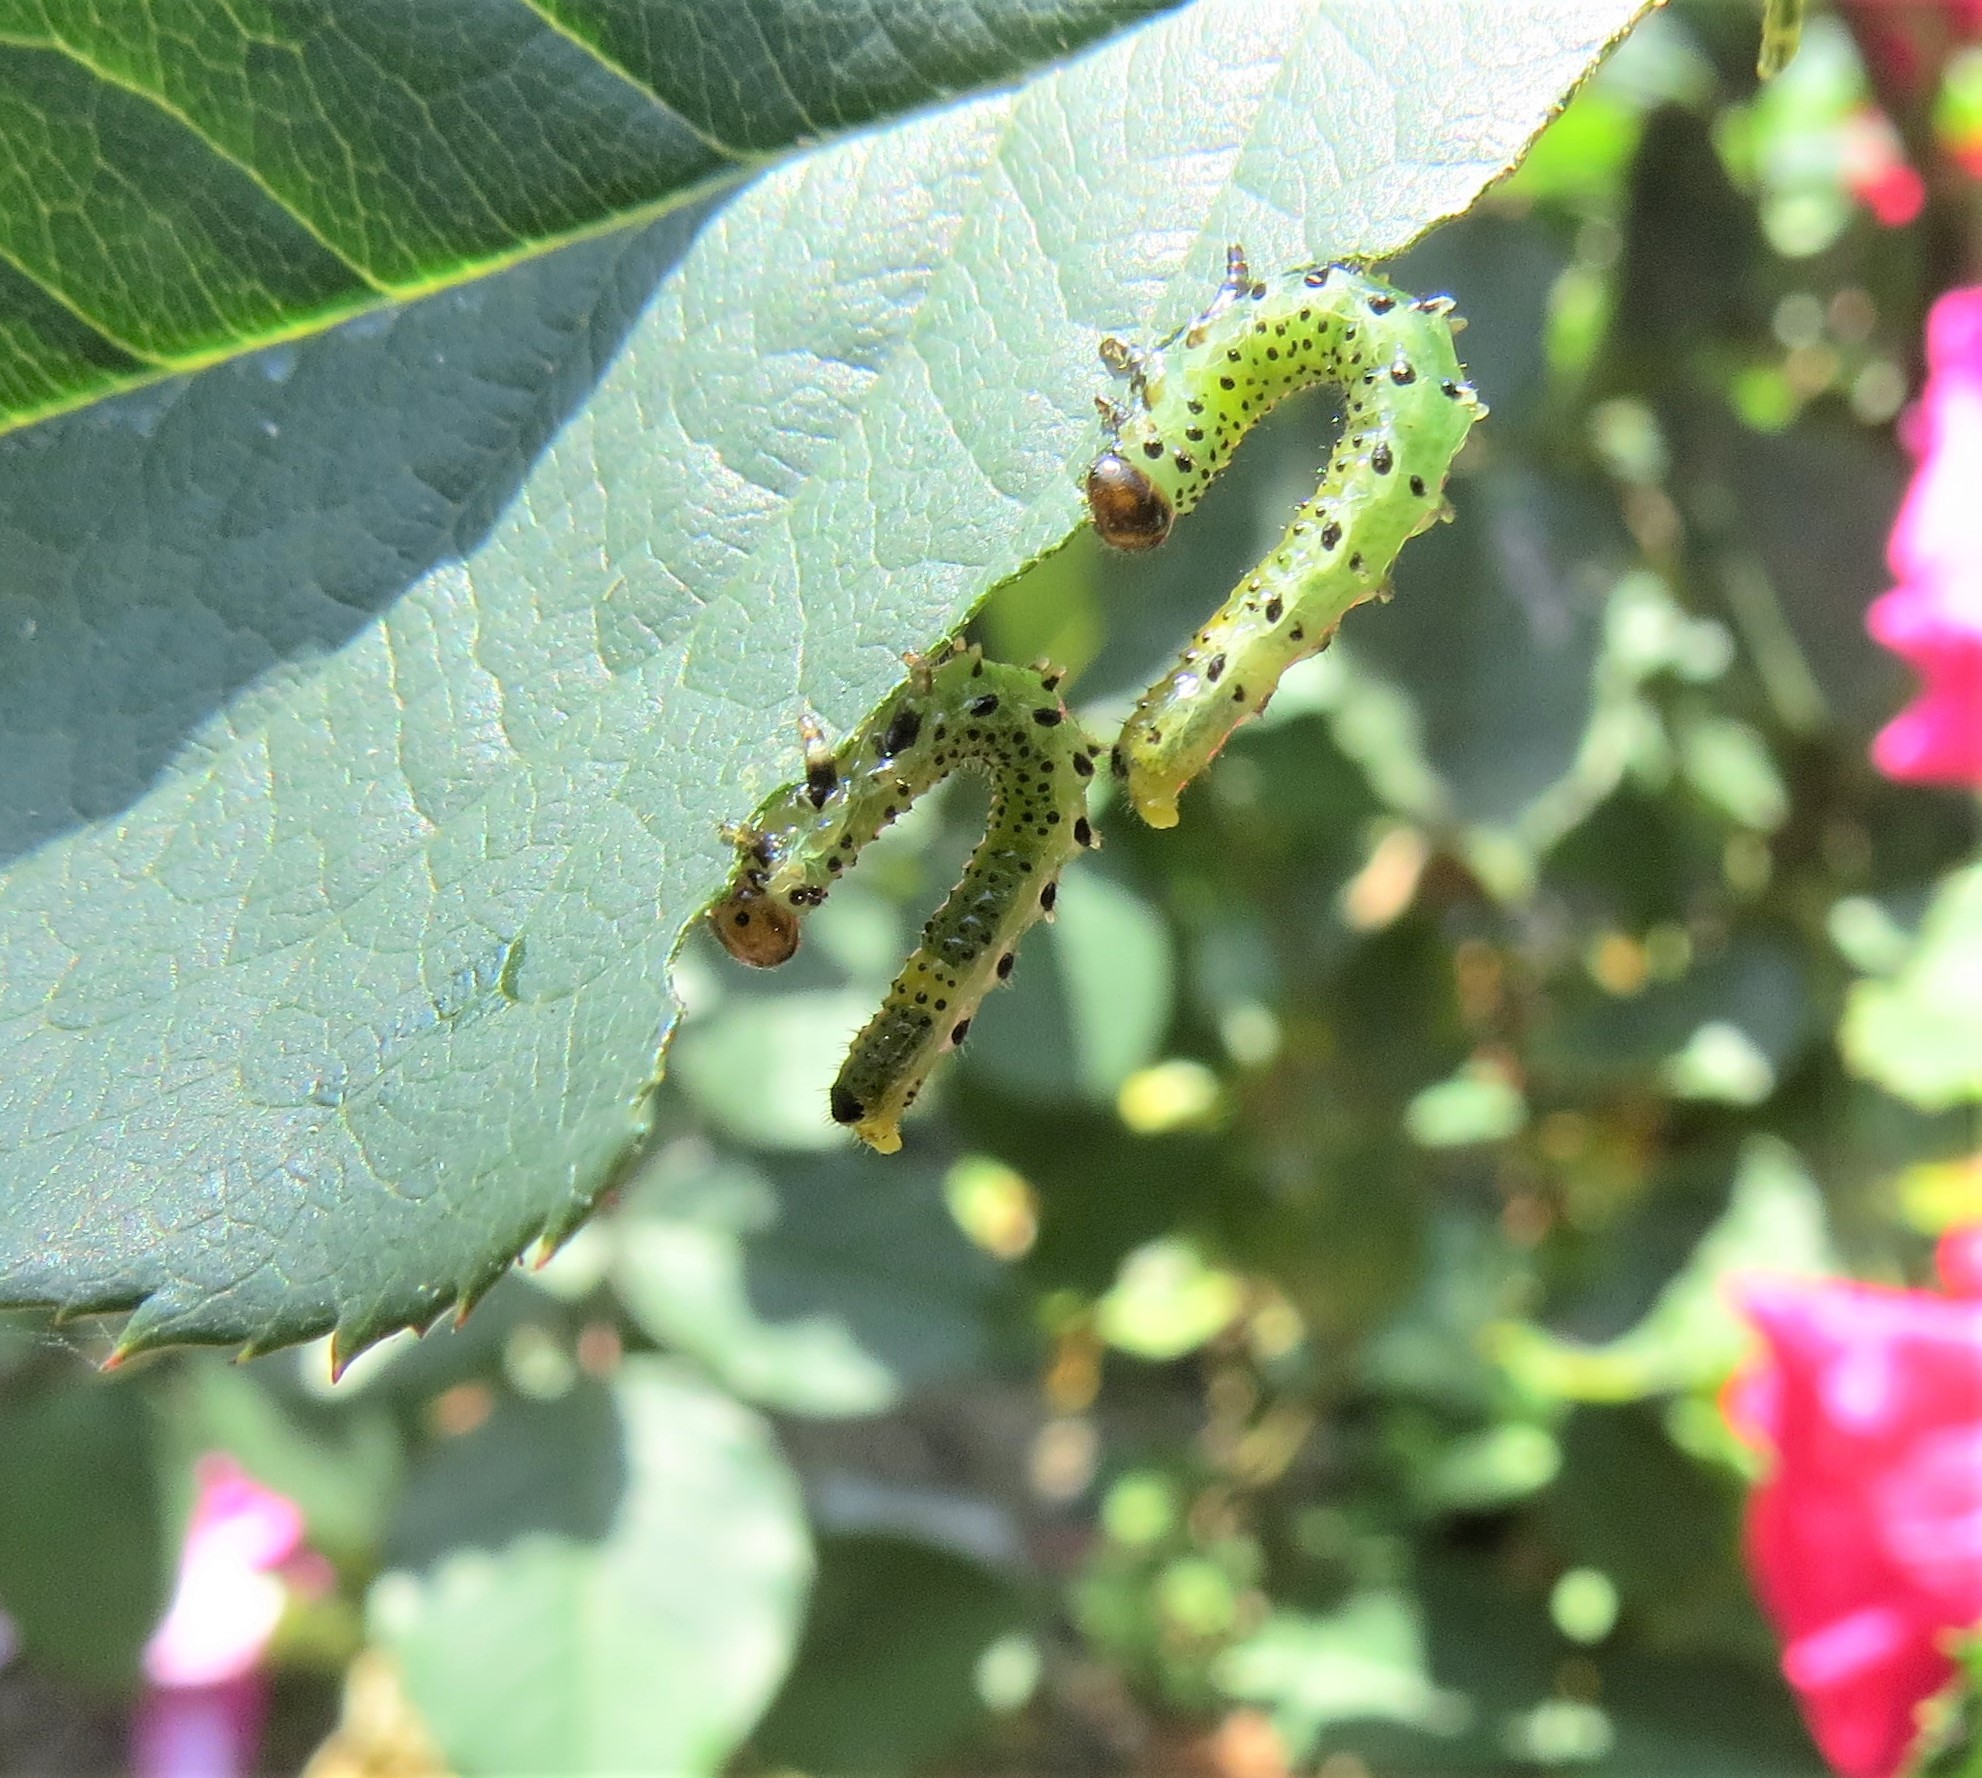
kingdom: Animalia
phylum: Arthropoda
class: Insecta
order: Hymenoptera
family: Argidae
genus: Arge
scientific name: Arge pagana
